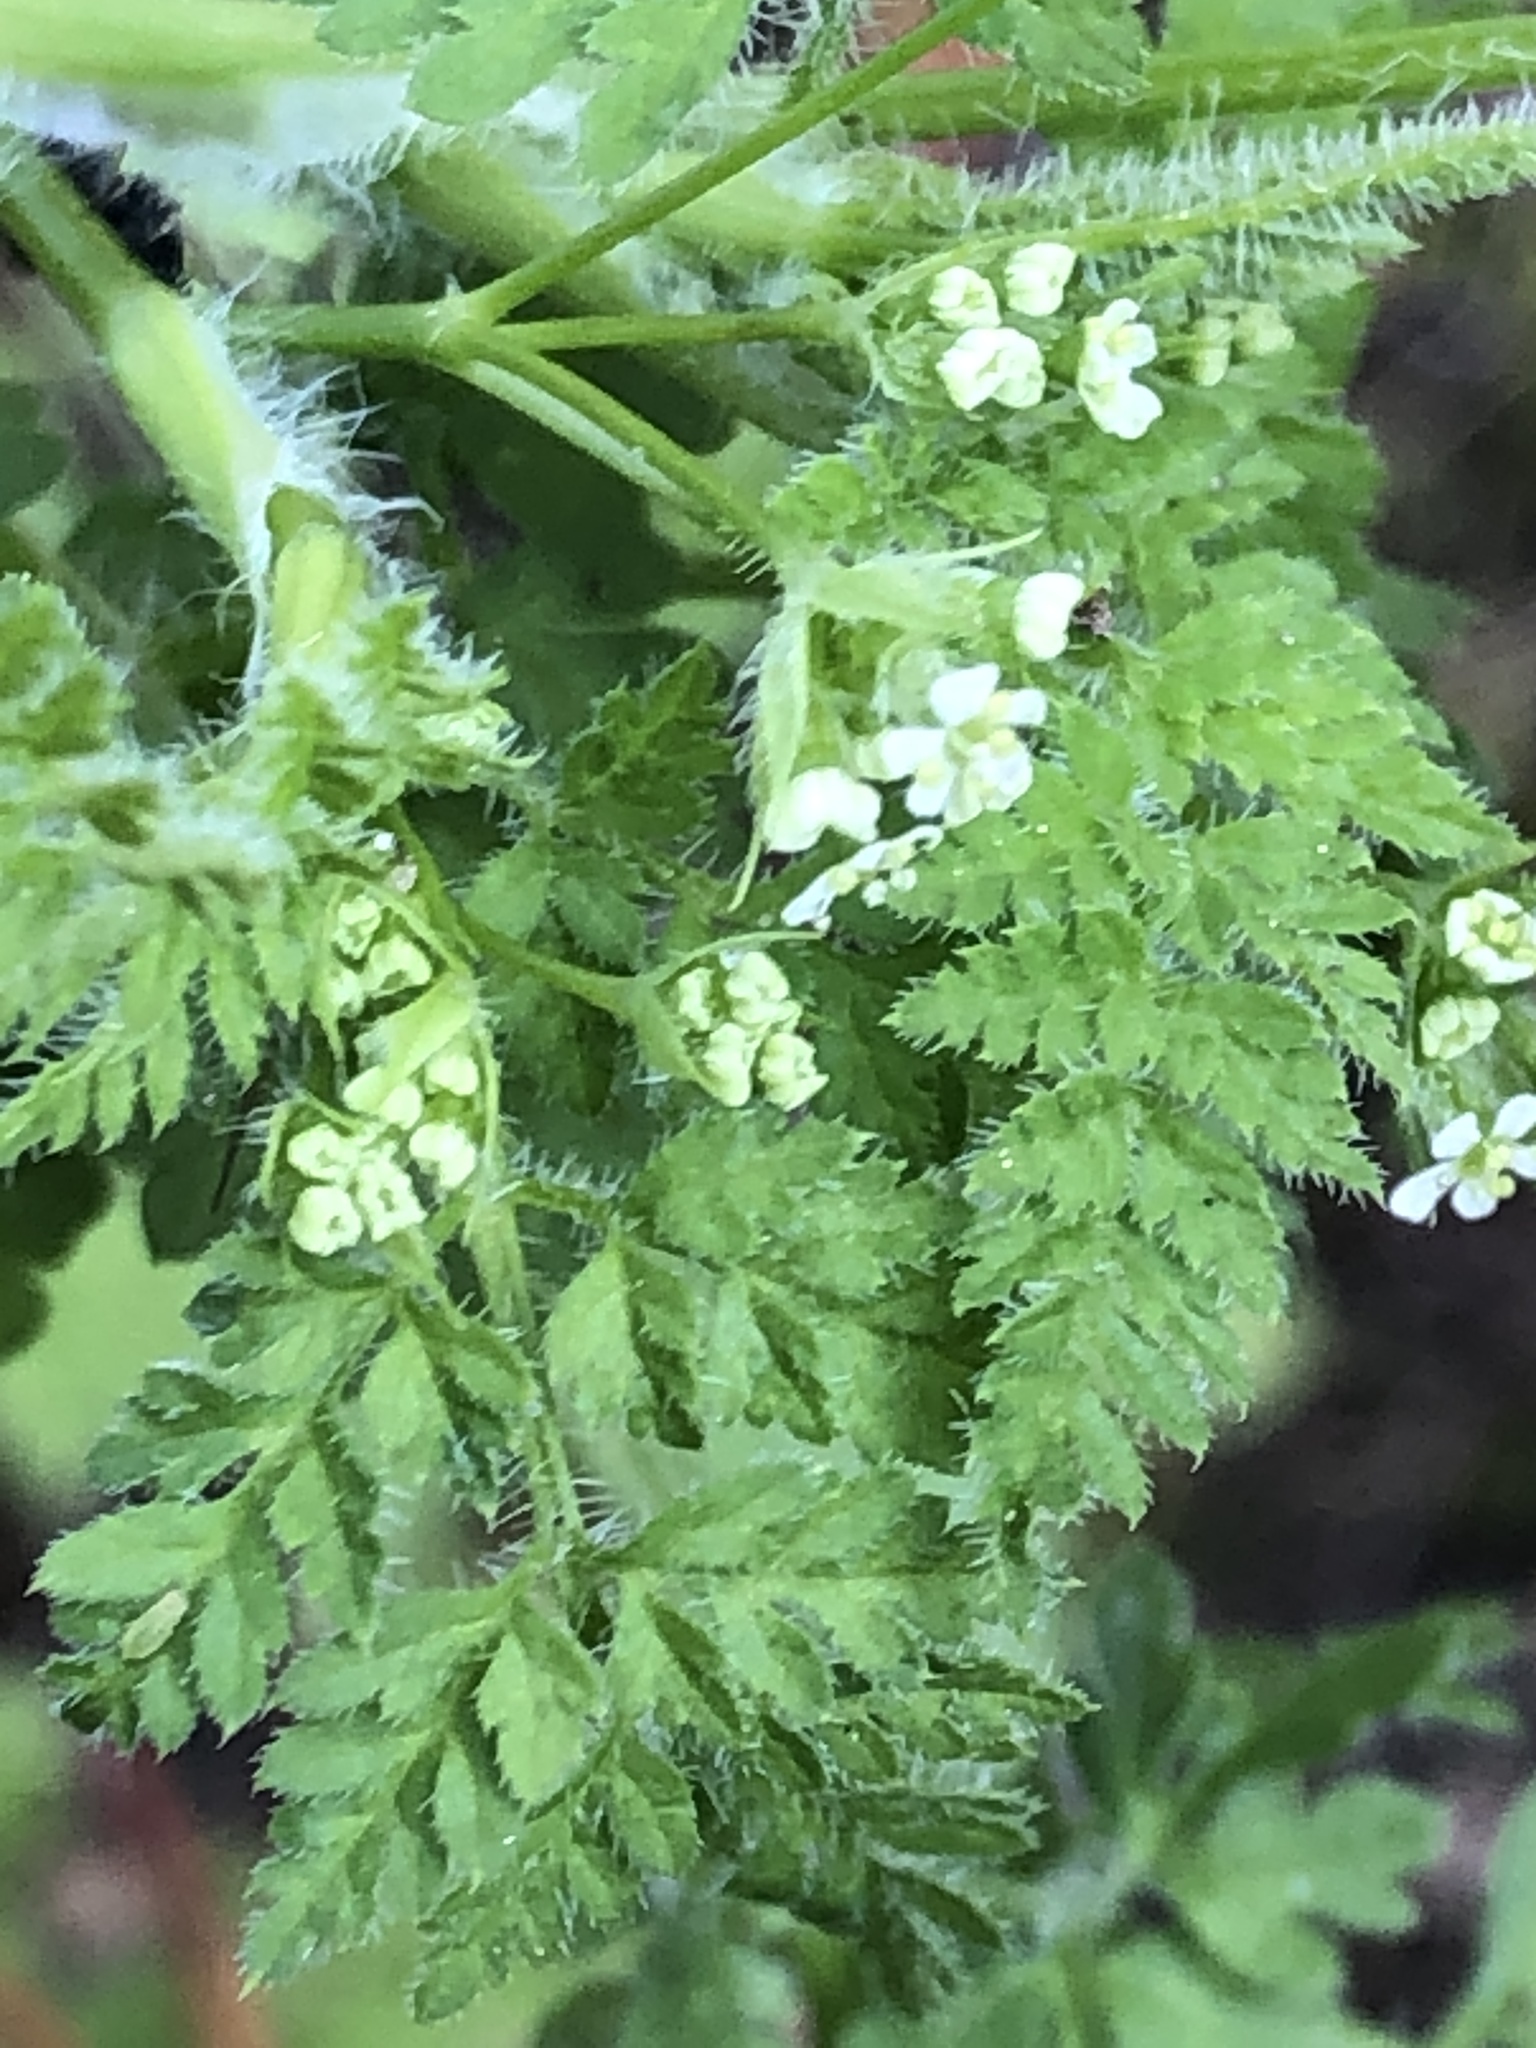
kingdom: Plantae
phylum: Tracheophyta
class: Magnoliopsida
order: Apiales
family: Apiaceae
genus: Anthriscus
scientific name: Anthriscus caucalis
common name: Bur chervil
